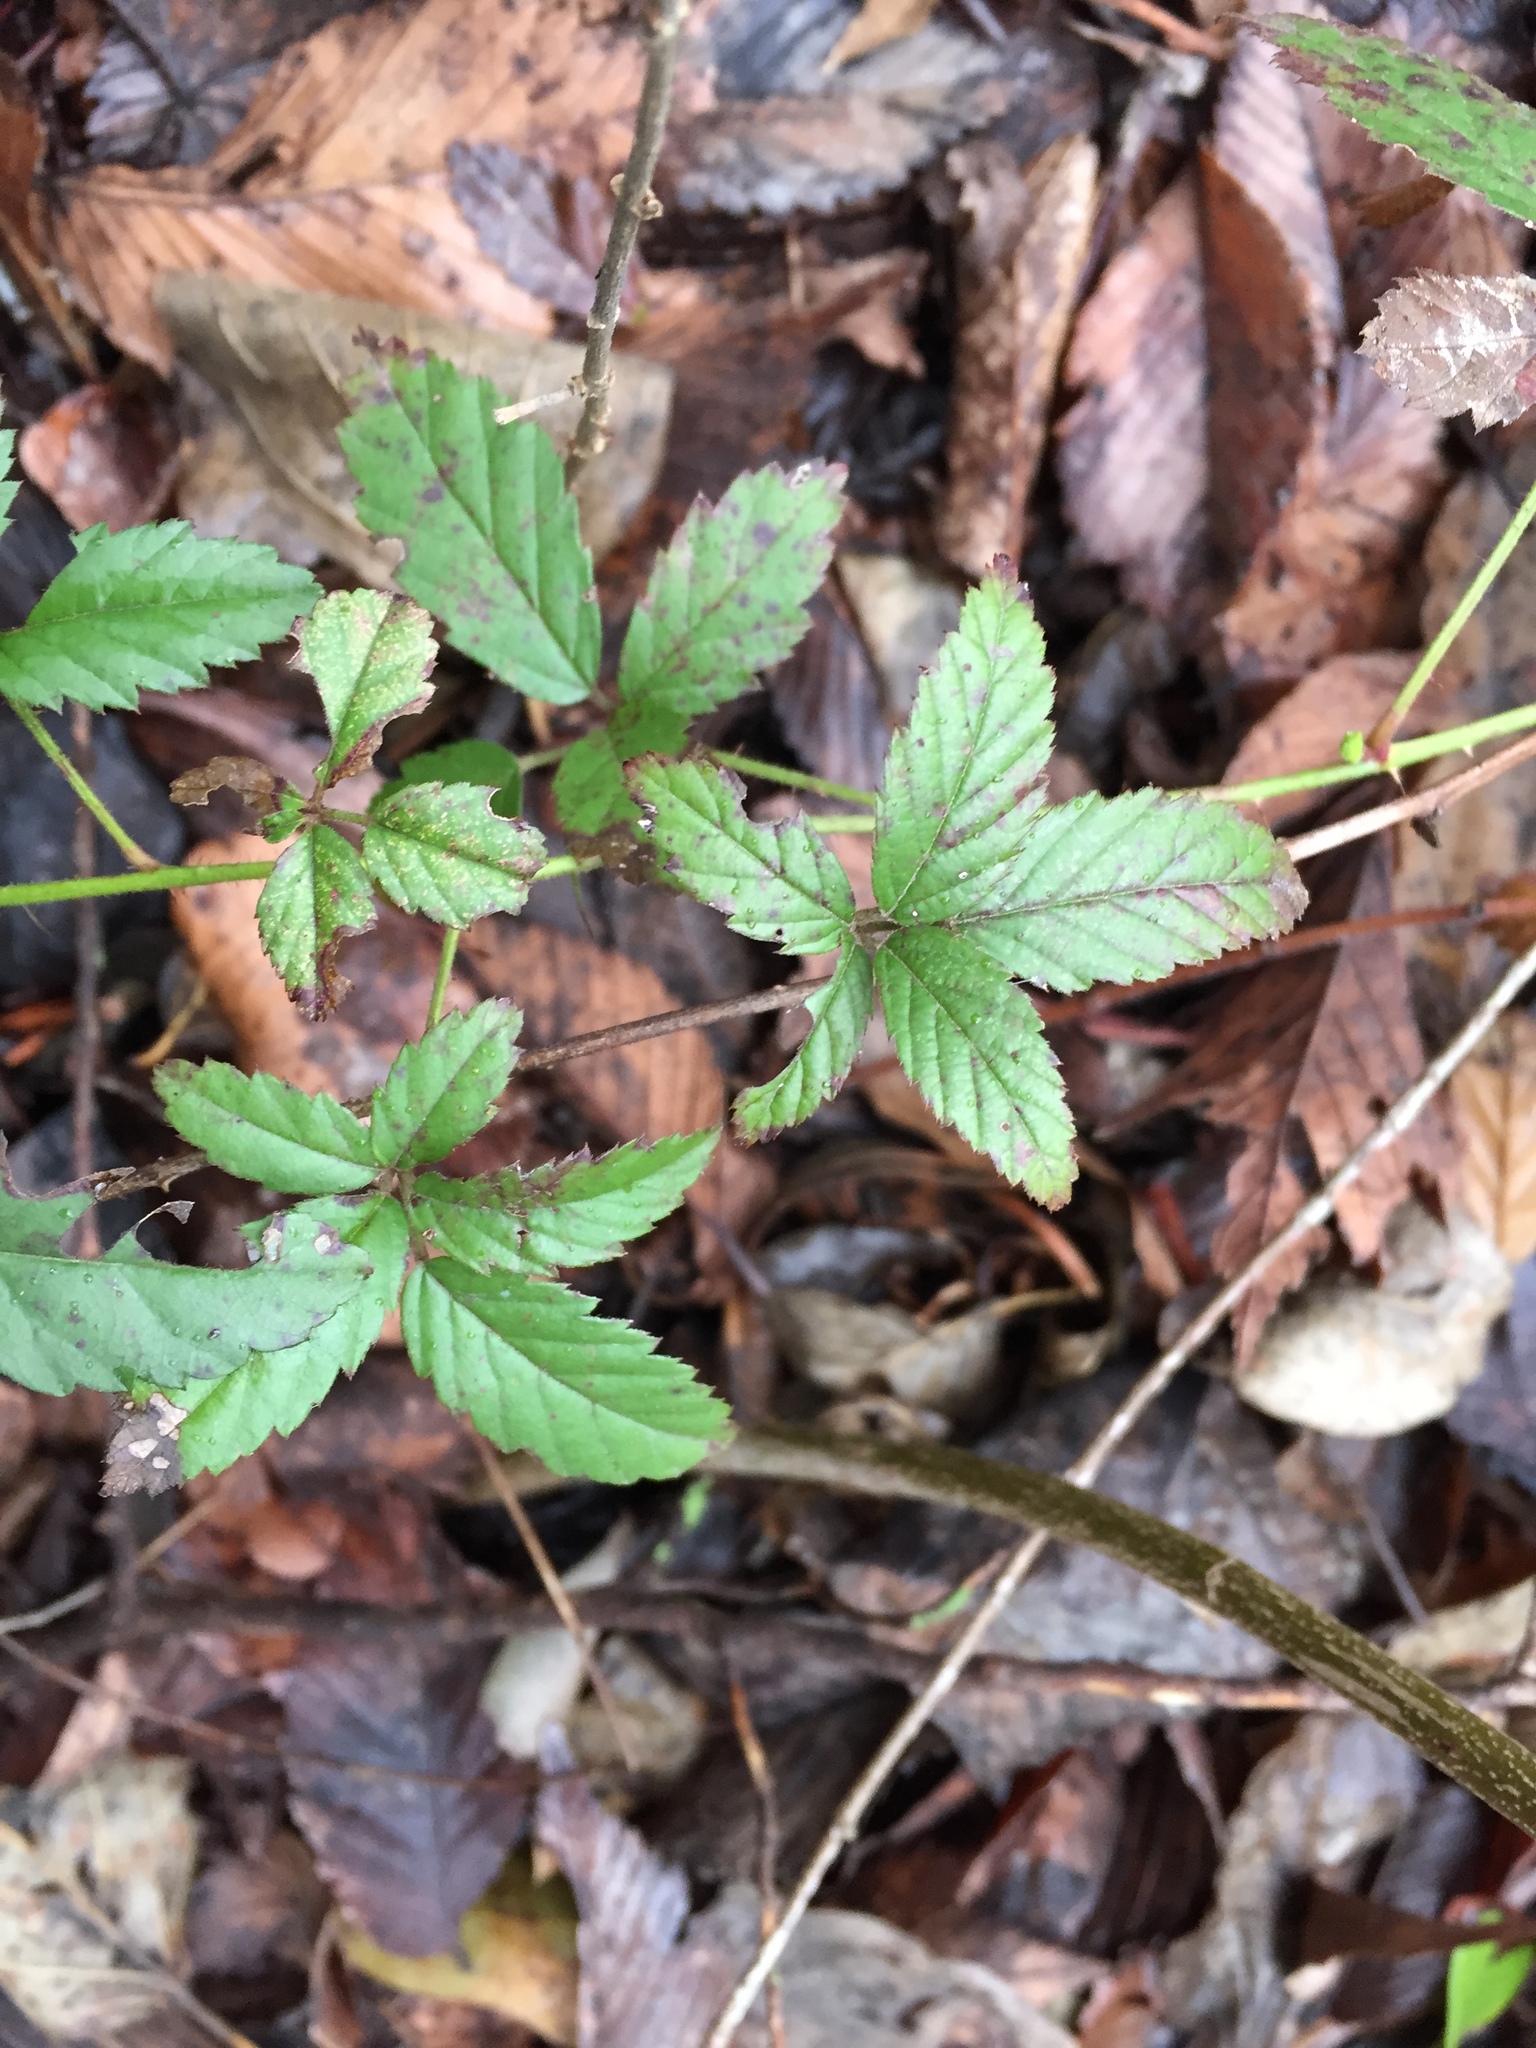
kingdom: Plantae
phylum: Tracheophyta
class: Magnoliopsida
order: Rosales
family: Rosaceae
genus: Rubus
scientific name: Rubus trivialis
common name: Southern dewberry
